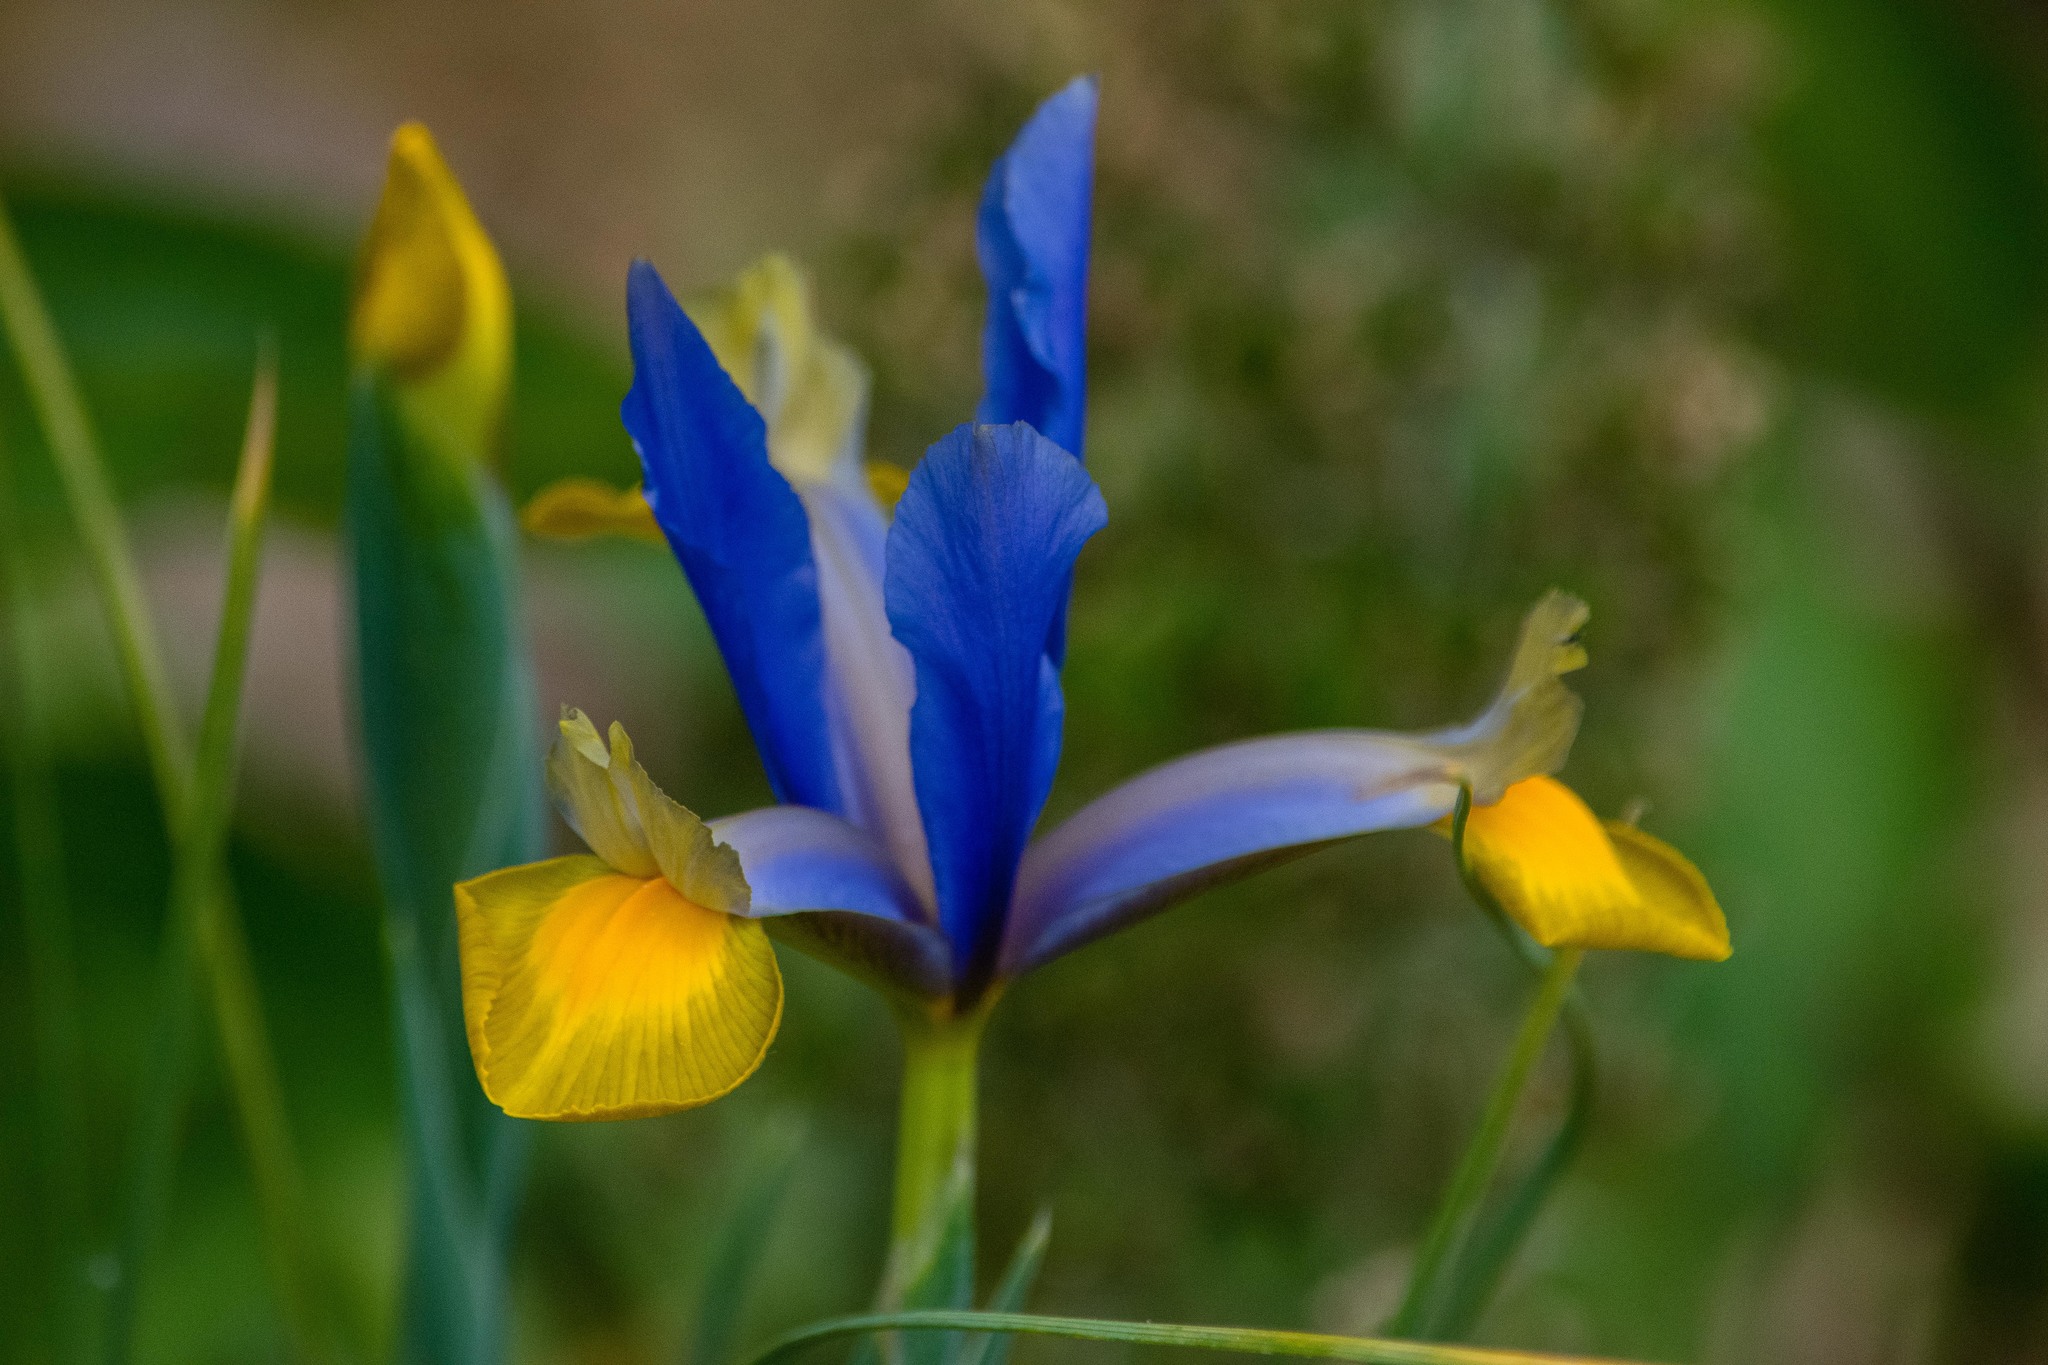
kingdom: Plantae
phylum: Tracheophyta
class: Liliopsida
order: Asparagales
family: Iridaceae
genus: Iris
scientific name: Iris hollandica
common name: Dutch iris
